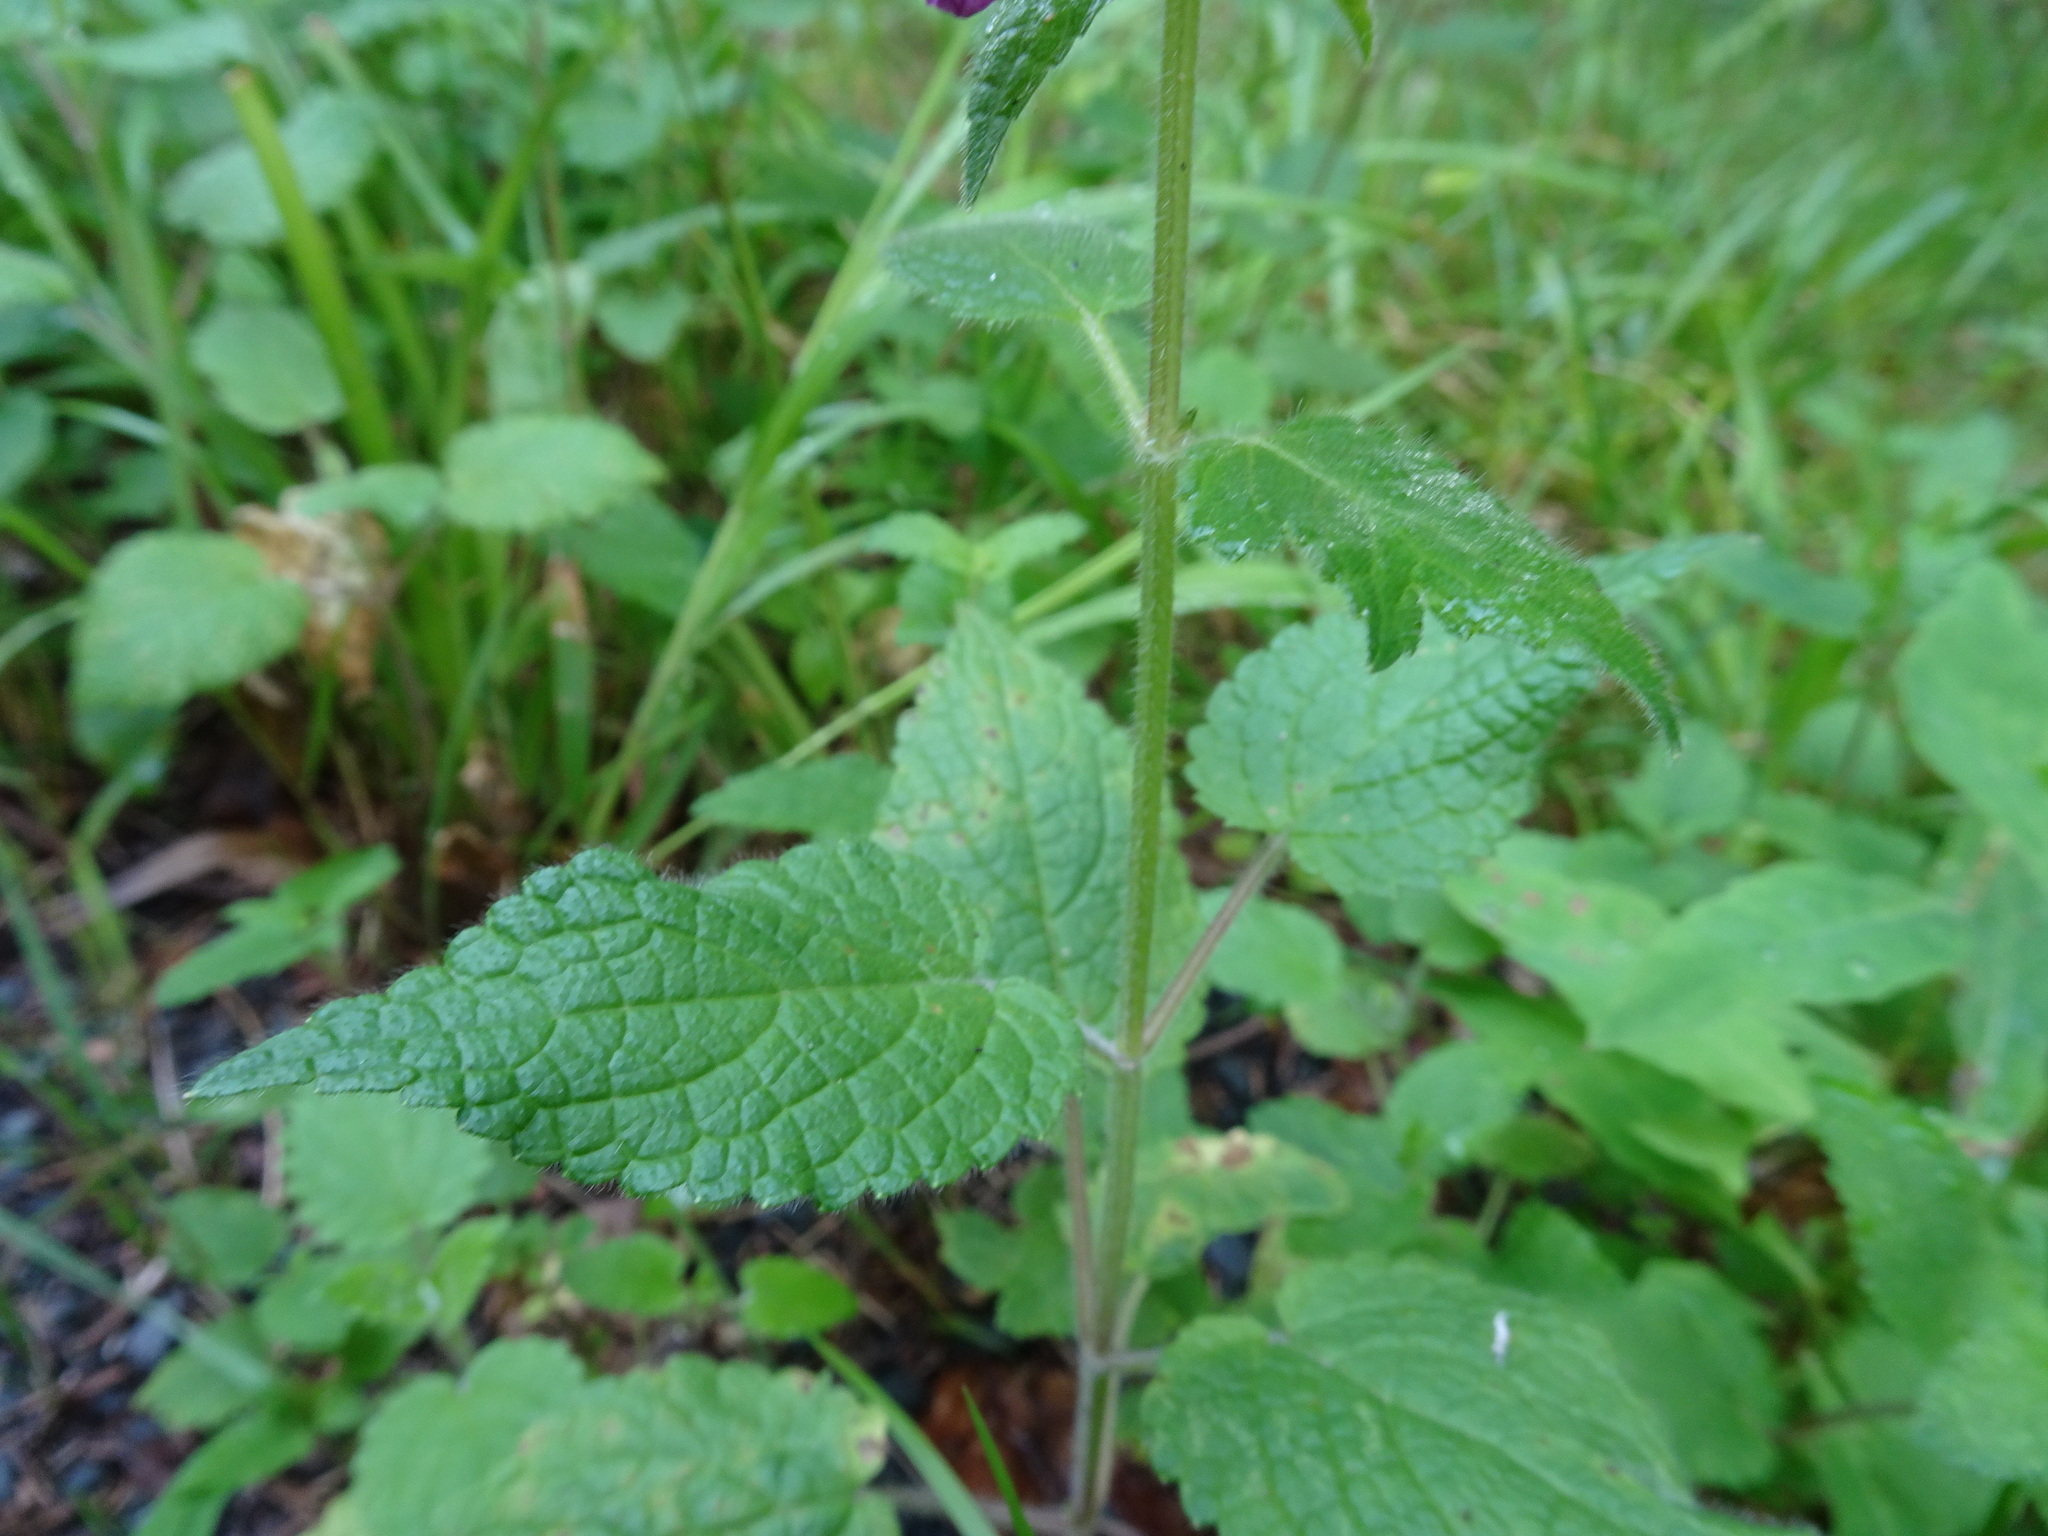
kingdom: Plantae
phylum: Tracheophyta
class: Magnoliopsida
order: Lamiales
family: Lamiaceae
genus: Stachys
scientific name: Stachys sylvatica
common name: Hedge woundwort
